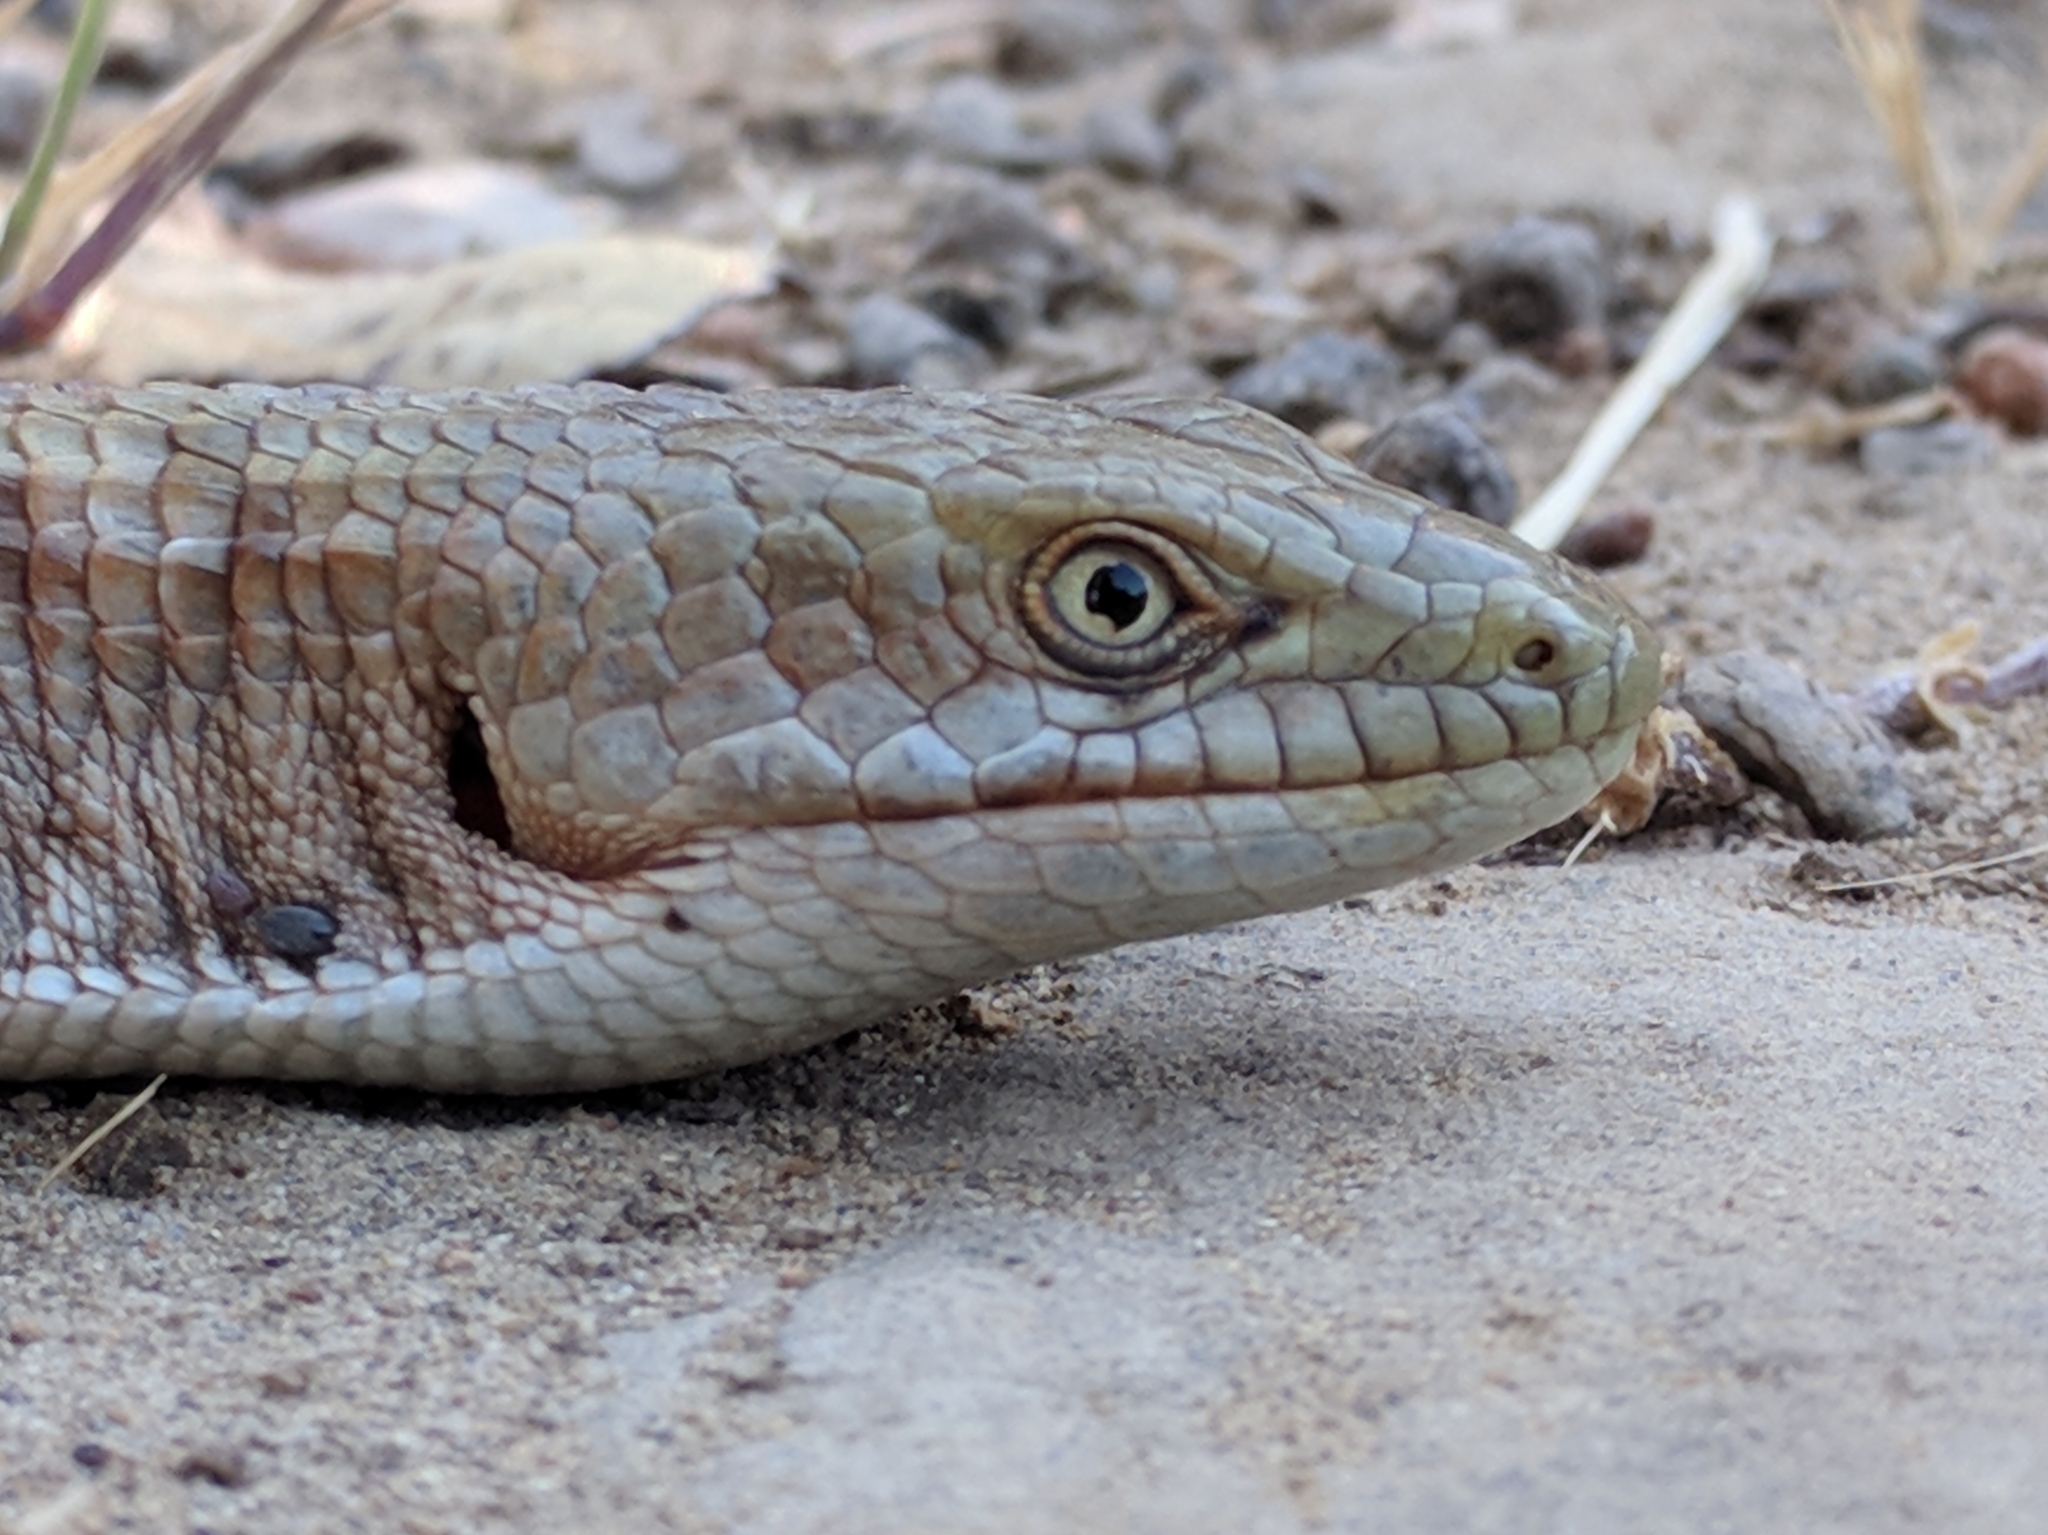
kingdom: Animalia
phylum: Chordata
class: Squamata
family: Anguidae
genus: Elgaria
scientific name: Elgaria multicarinata
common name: Southern alligator lizard
